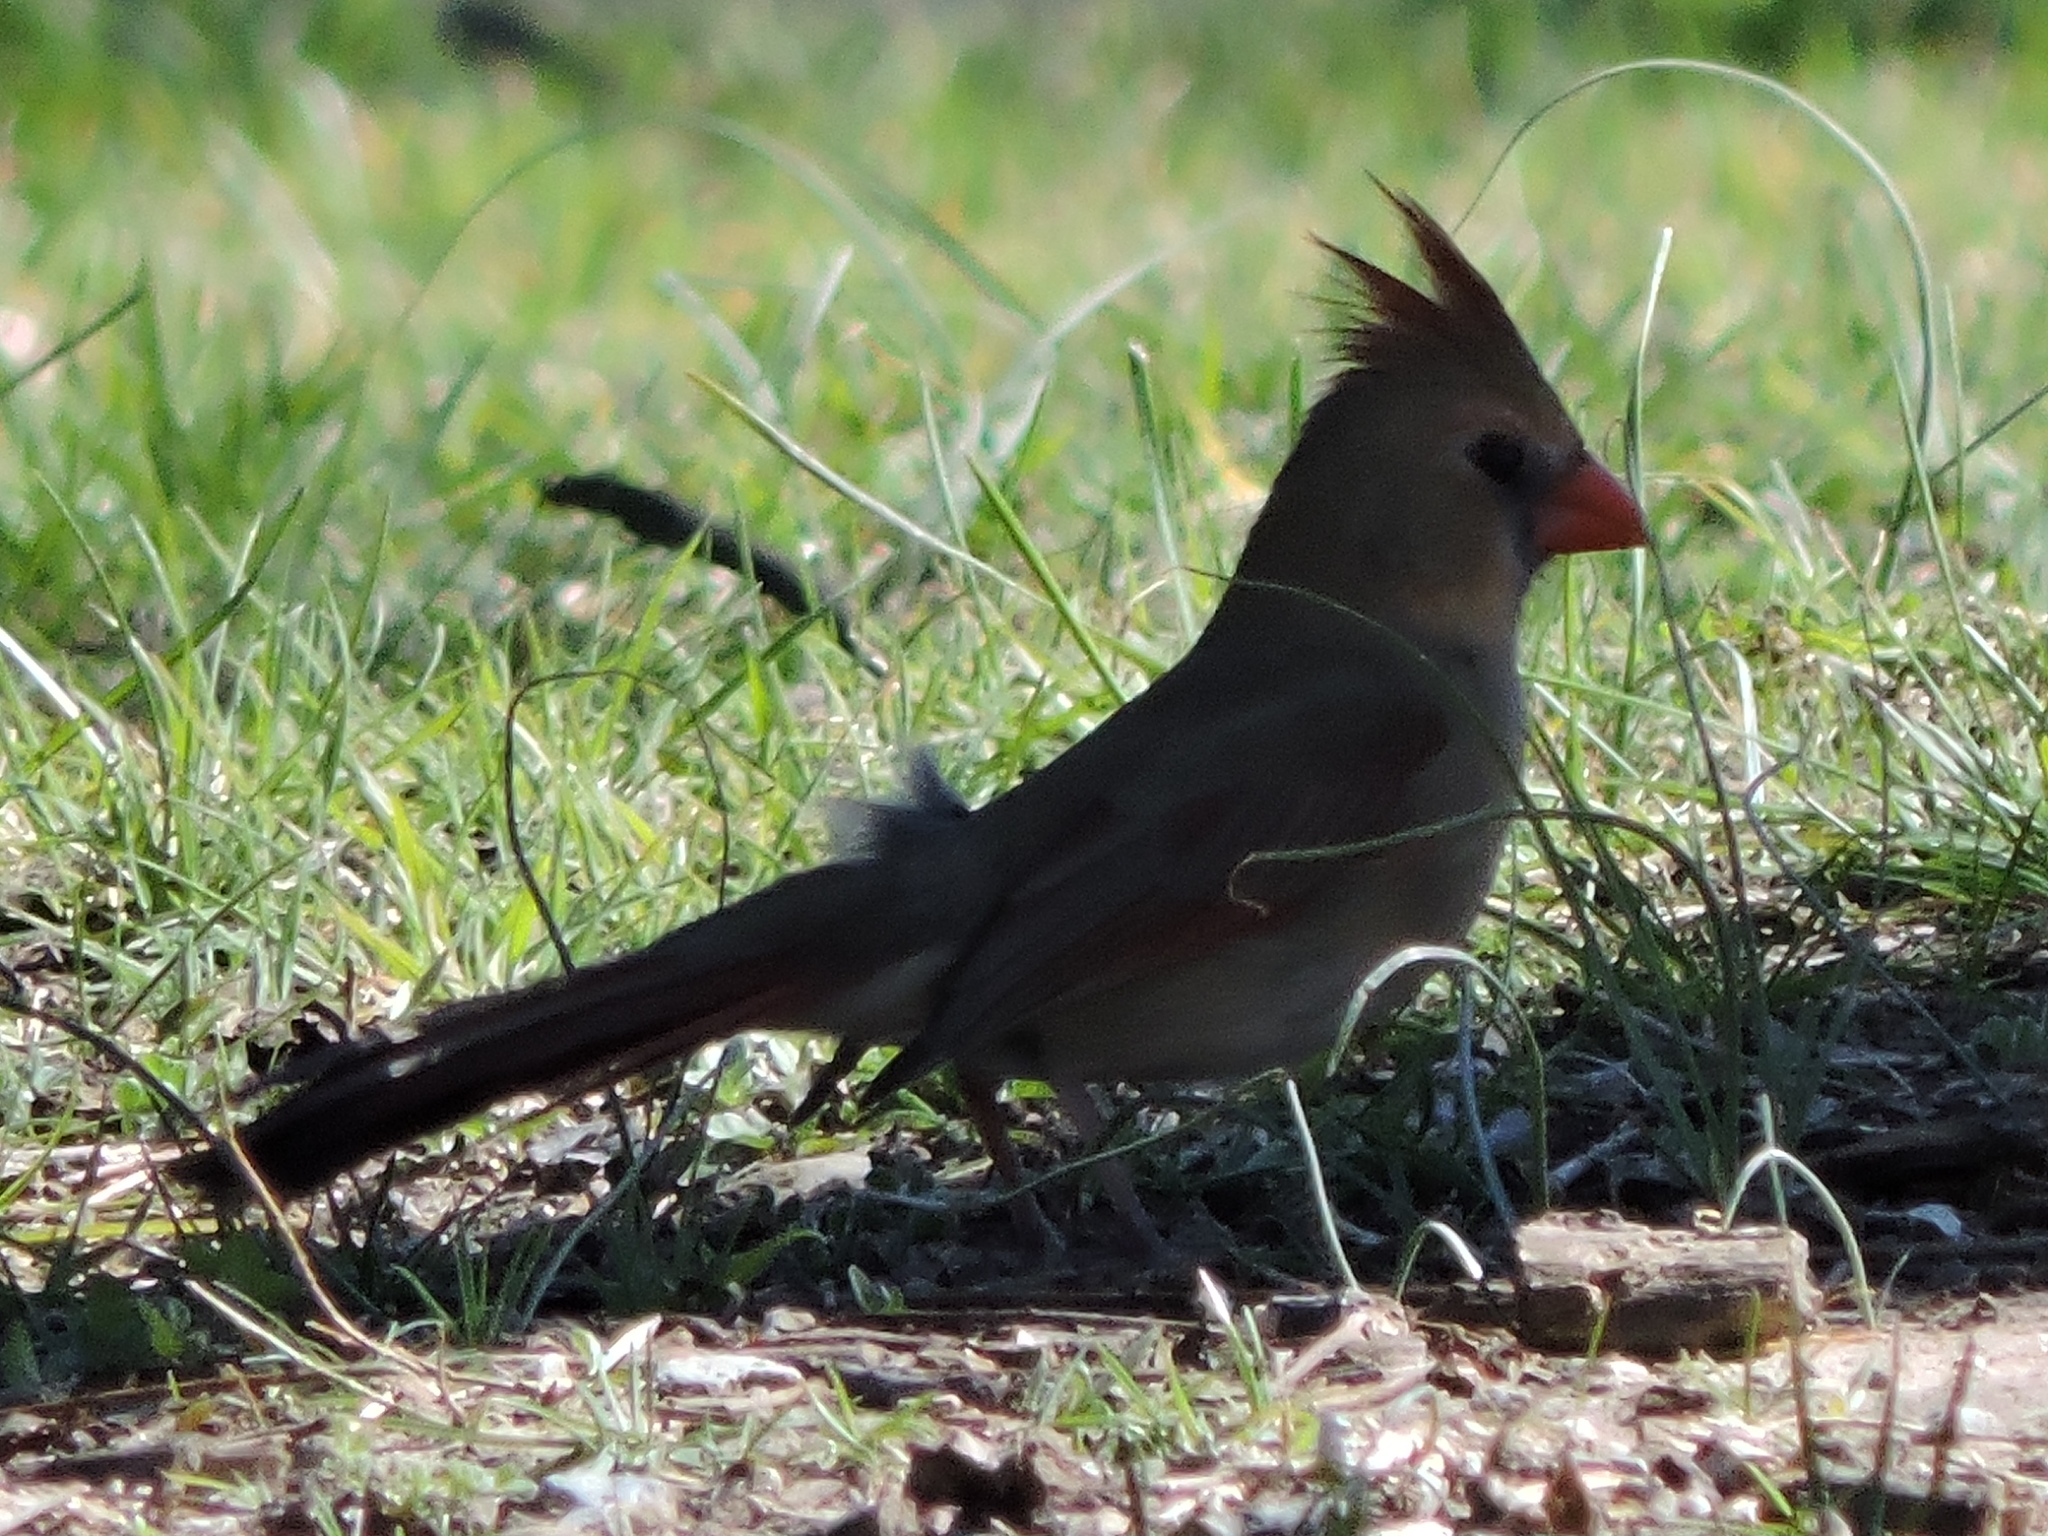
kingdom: Animalia
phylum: Chordata
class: Aves
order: Passeriformes
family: Cardinalidae
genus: Cardinalis
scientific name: Cardinalis cardinalis
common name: Northern cardinal
